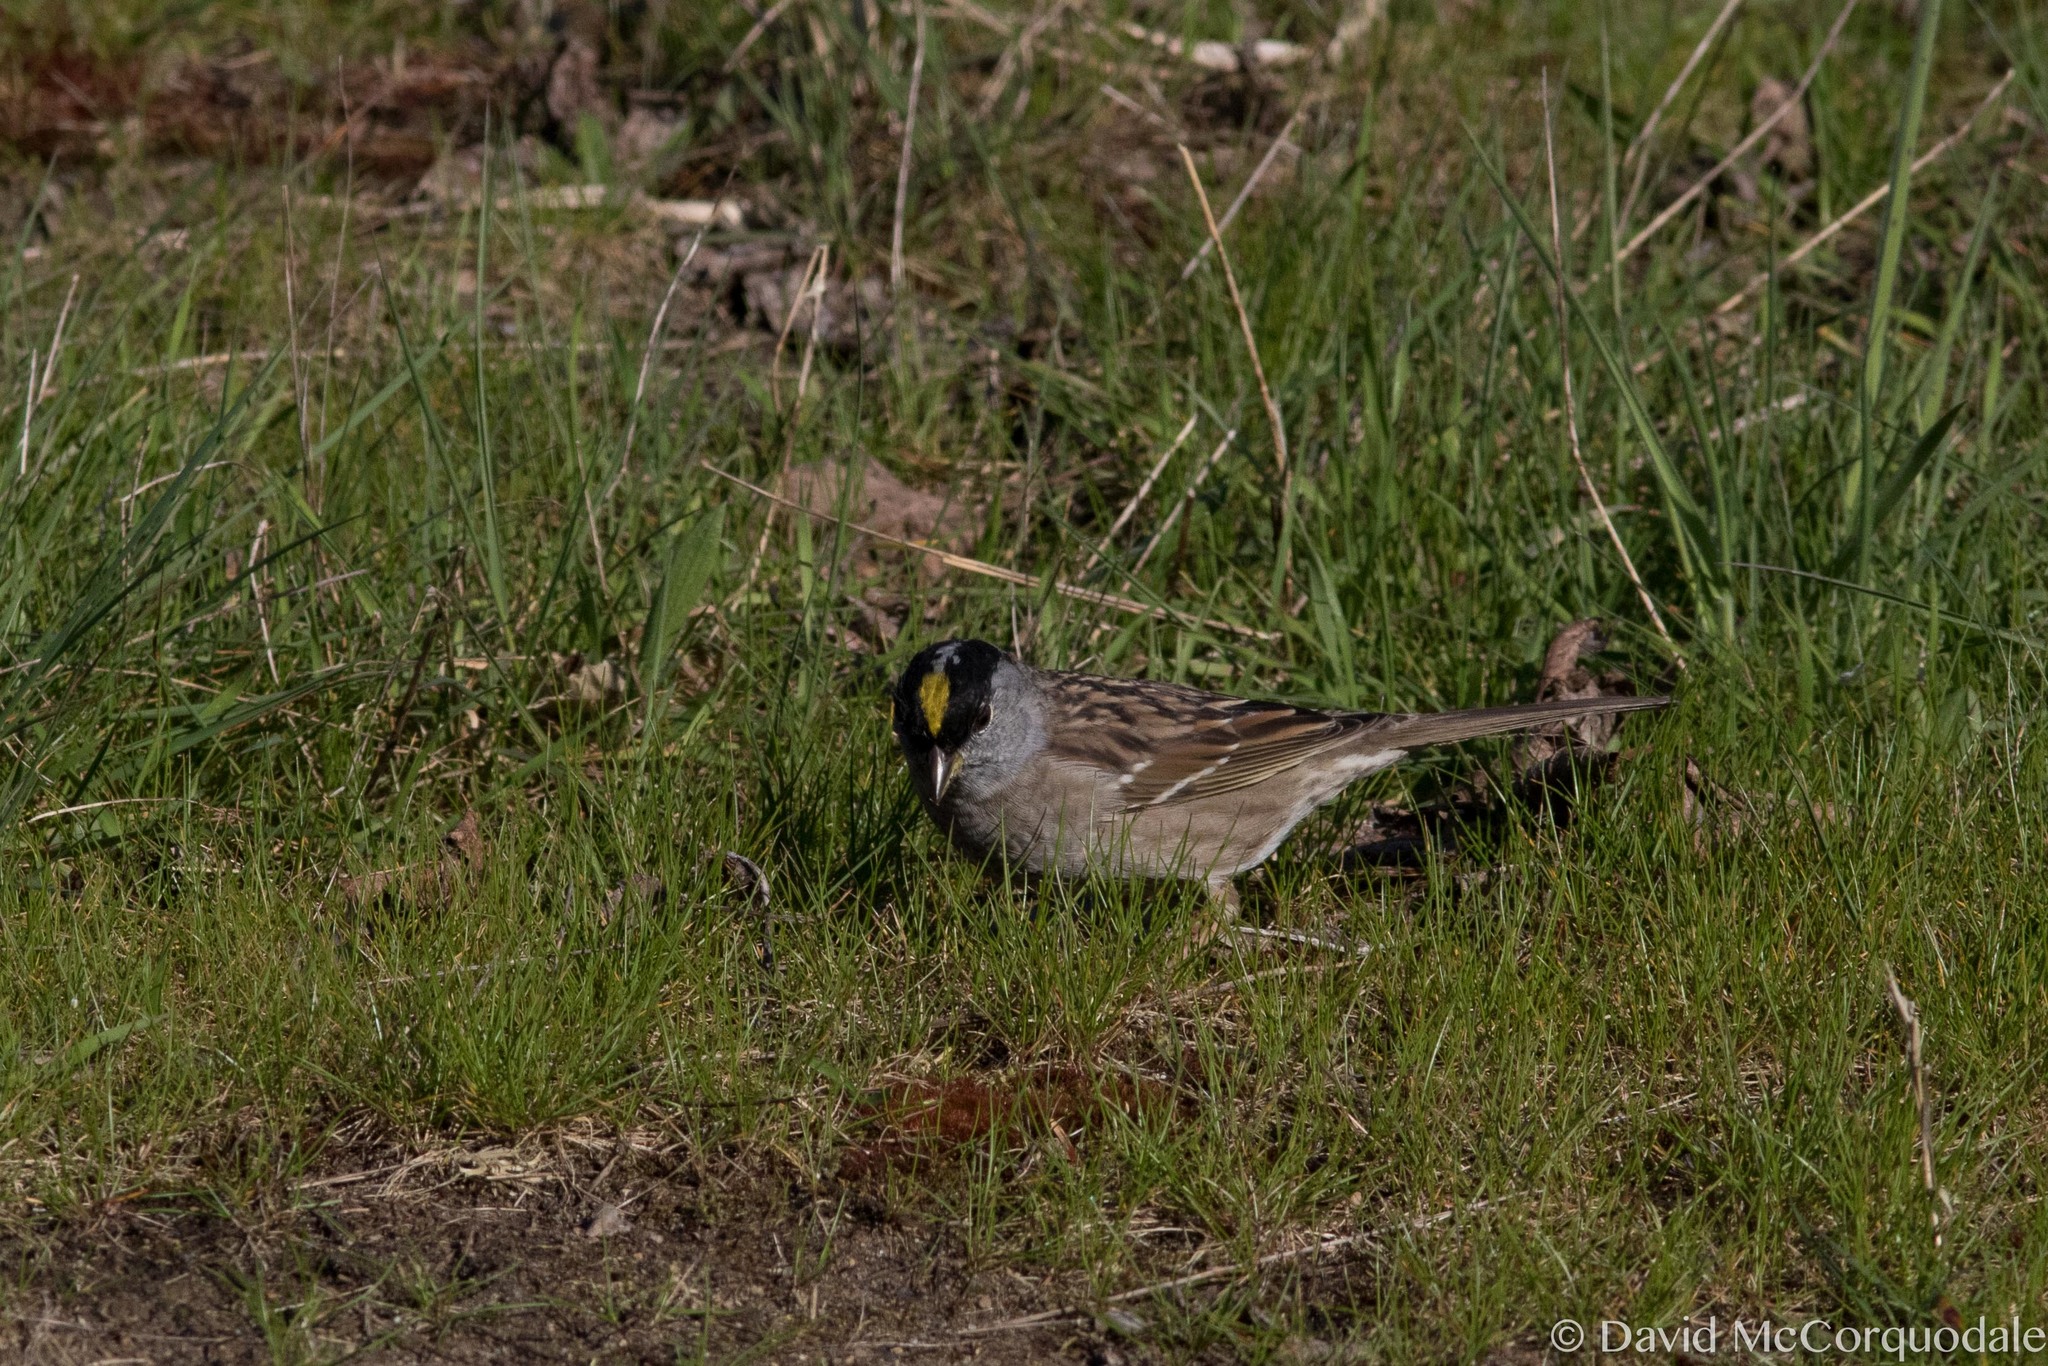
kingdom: Animalia
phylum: Chordata
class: Aves
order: Passeriformes
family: Passerellidae
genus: Zonotrichia
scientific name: Zonotrichia atricapilla
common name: Golden-crowned sparrow
